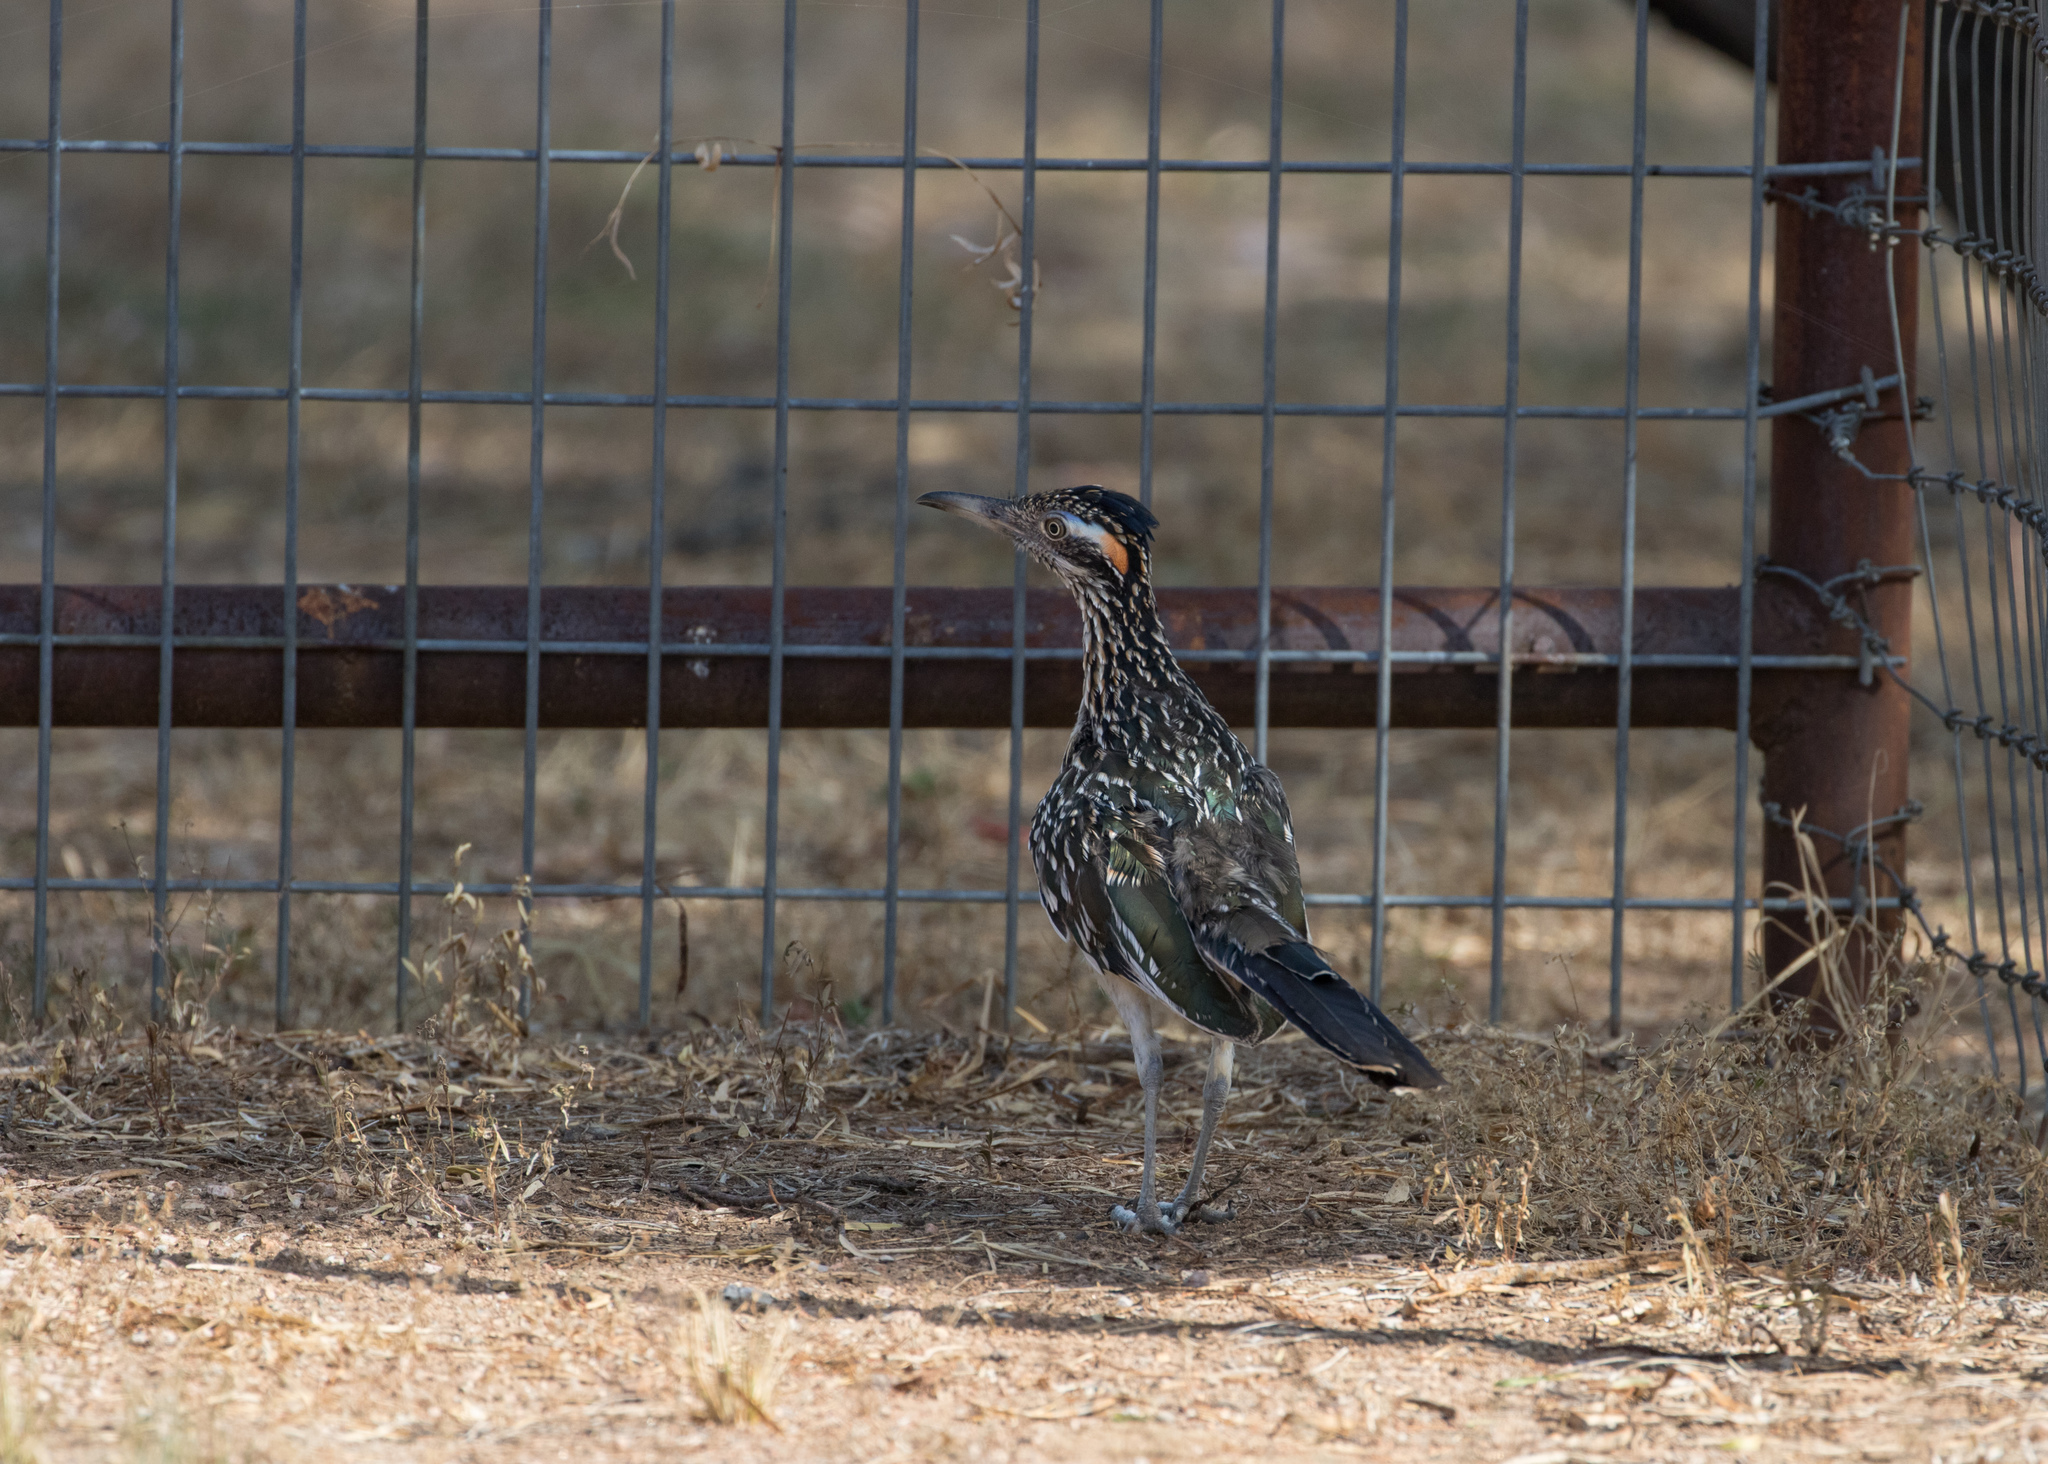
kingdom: Animalia
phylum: Chordata
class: Aves
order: Cuculiformes
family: Cuculidae
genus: Geococcyx
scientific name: Geococcyx californianus
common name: Greater roadrunner
